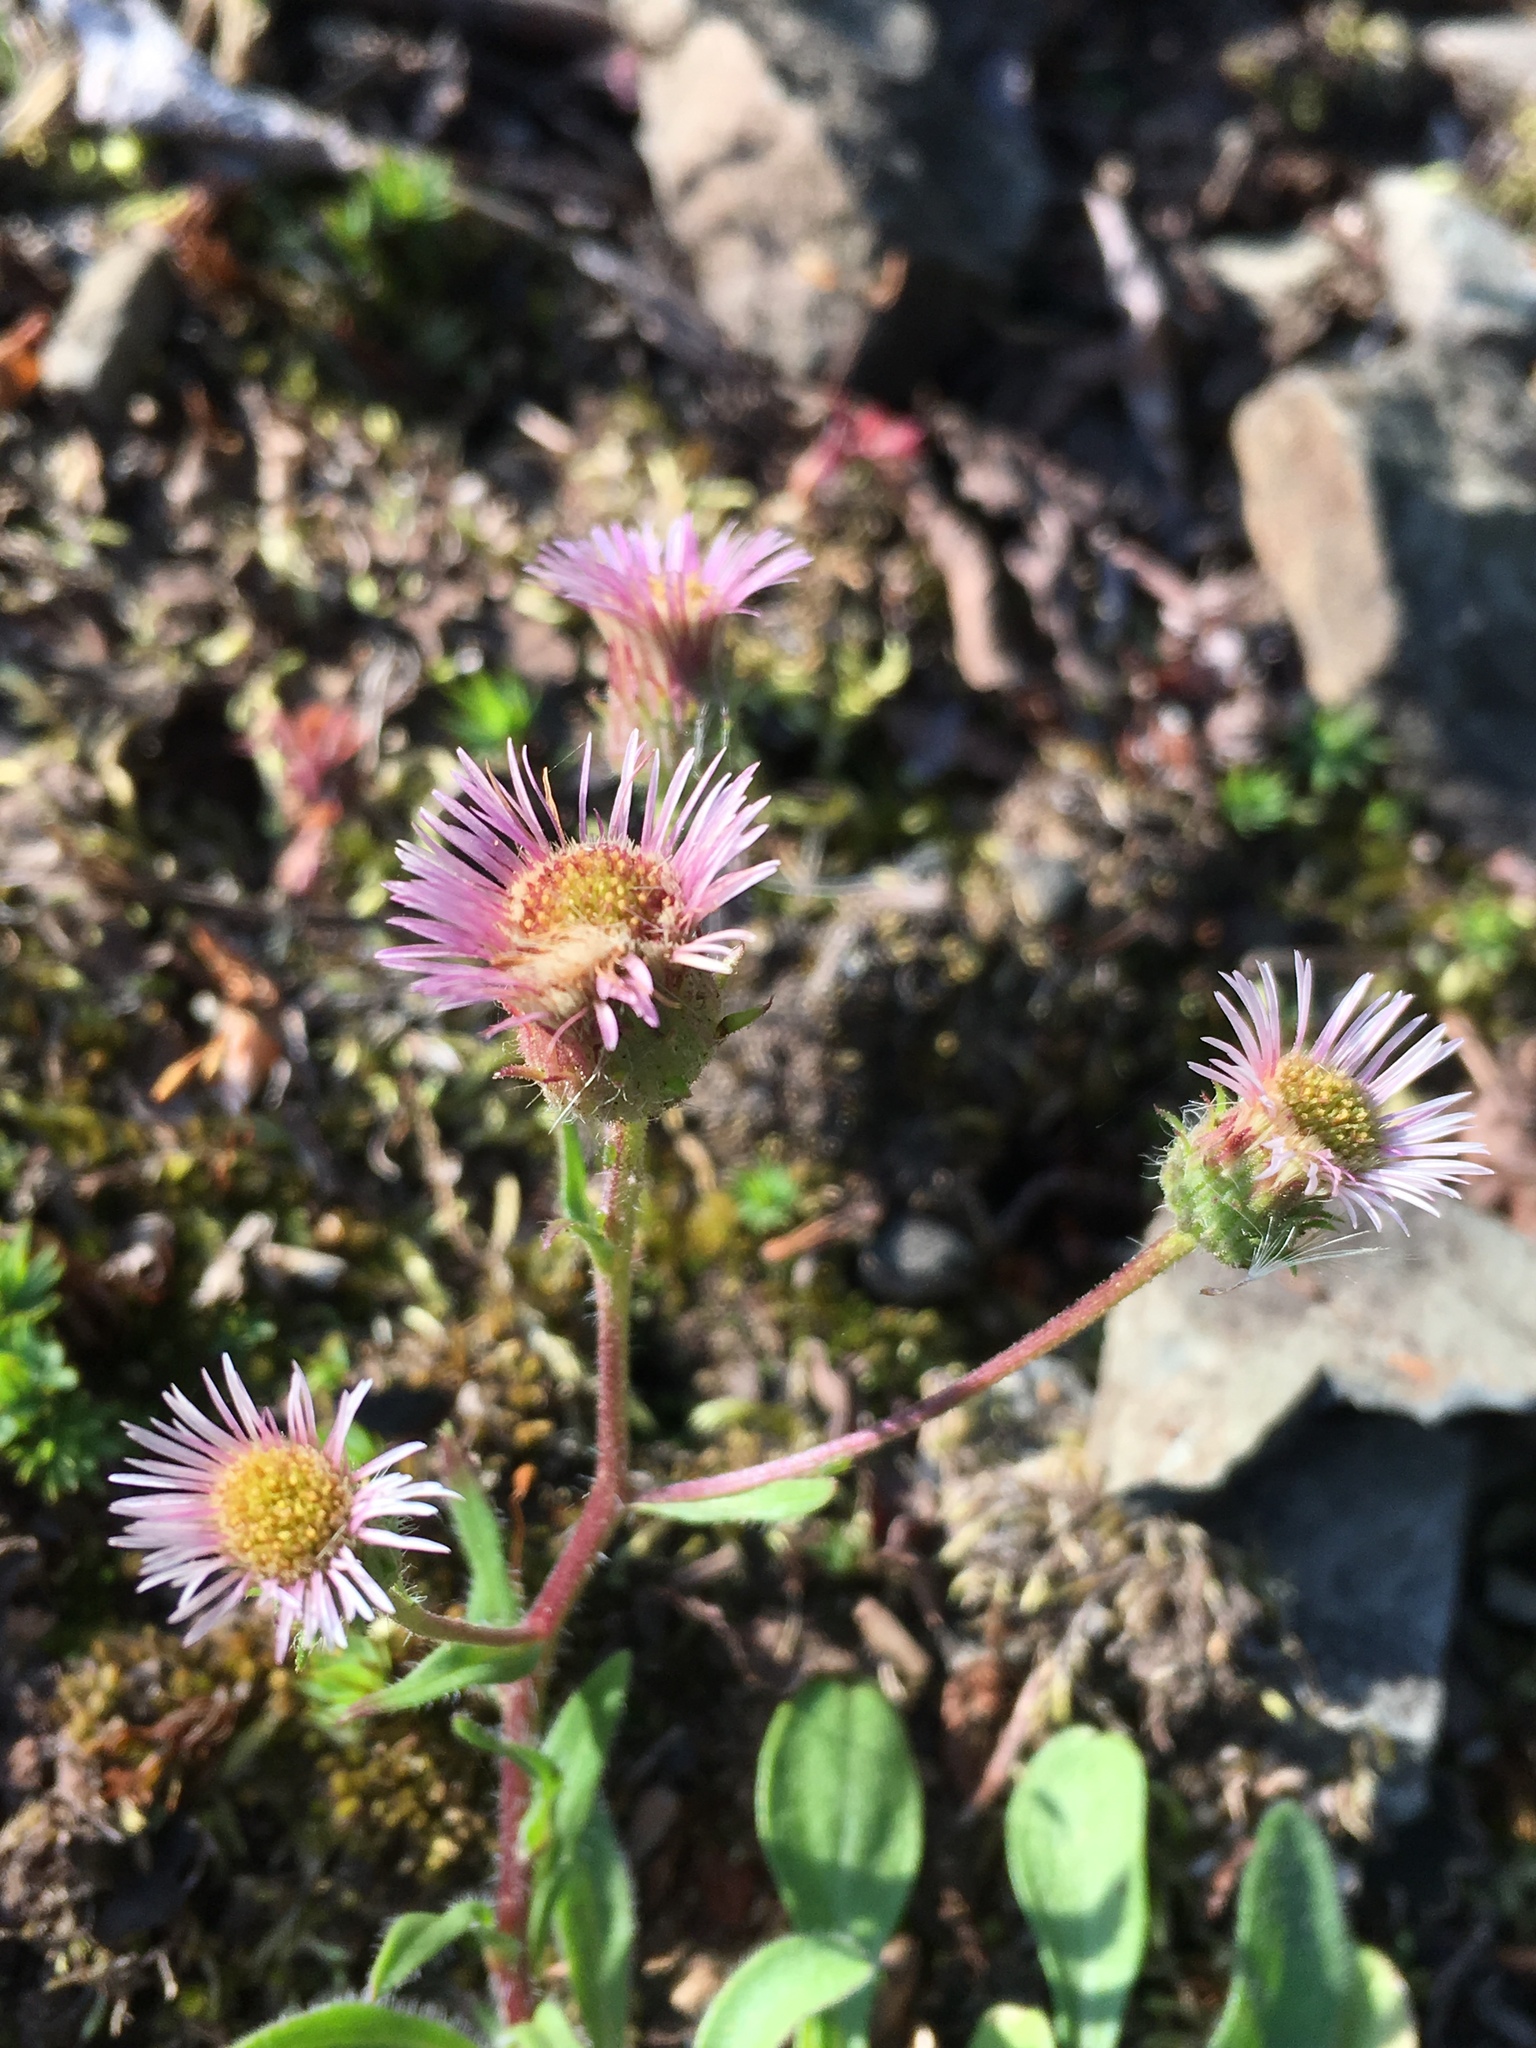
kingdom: Plantae
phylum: Tracheophyta
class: Magnoliopsida
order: Asterales
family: Asteraceae
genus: Erigeron
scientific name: Erigeron nivalis
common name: Snow fleabane
